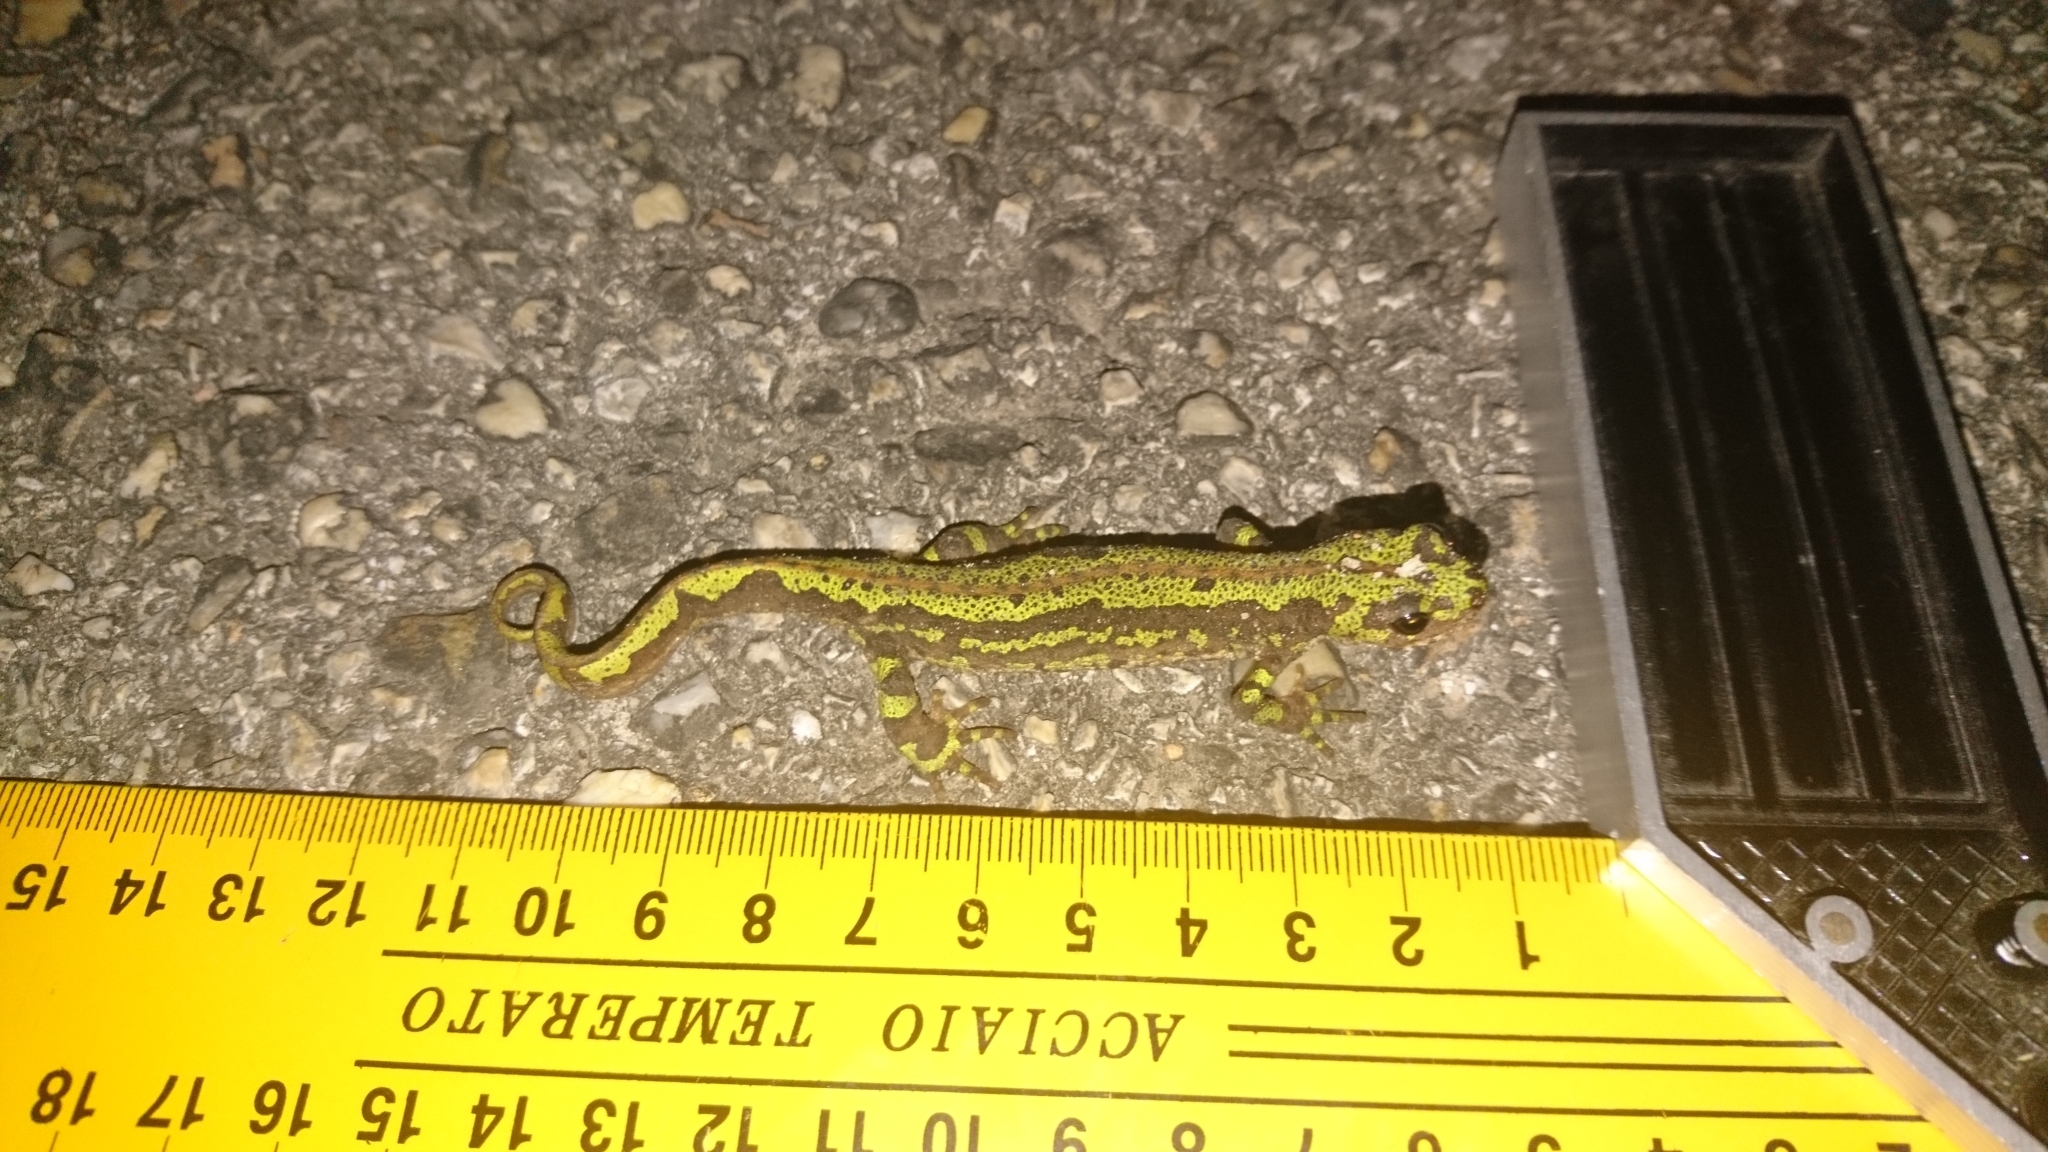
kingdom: Animalia
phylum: Chordata
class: Amphibia
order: Caudata
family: Salamandridae
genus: Triturus
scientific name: Triturus marmoratus
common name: Marbled newt
